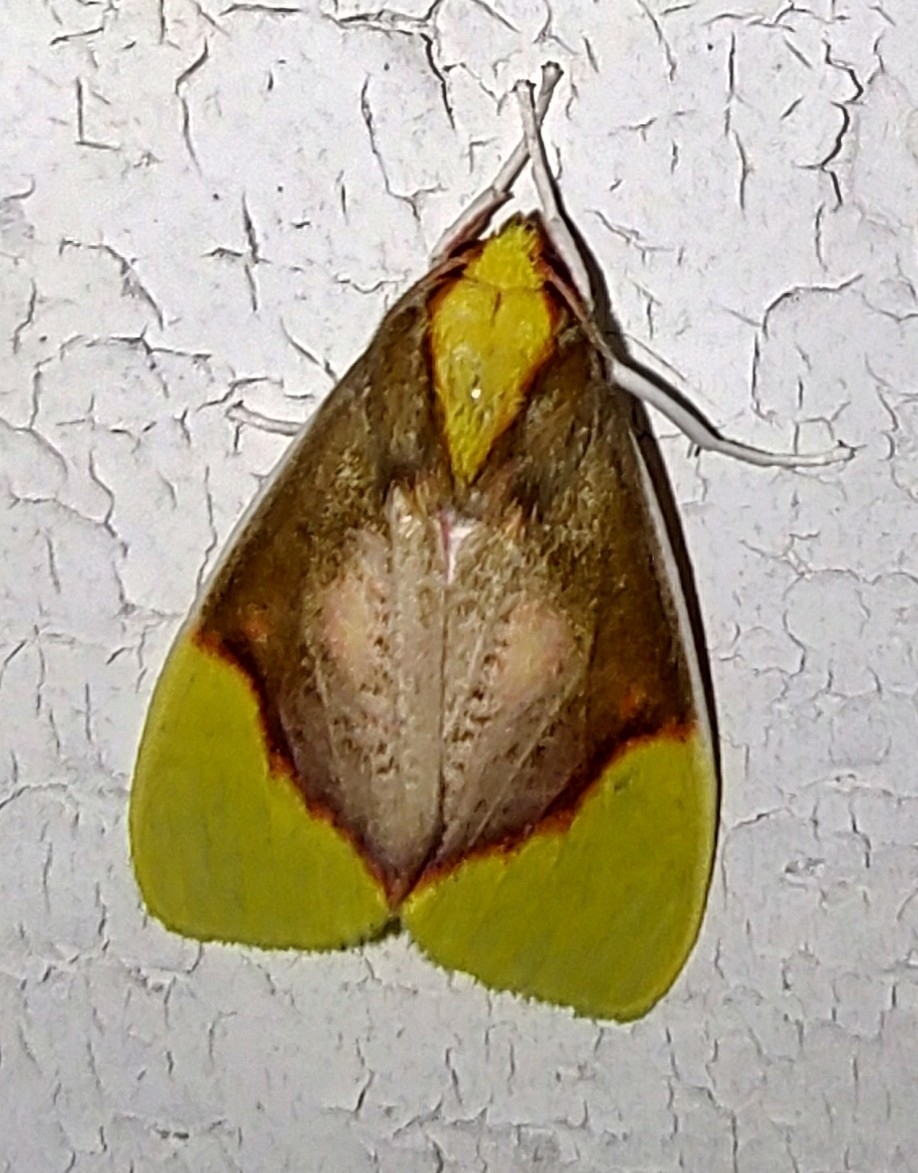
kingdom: Animalia
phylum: Arthropoda
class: Insecta
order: Lepidoptera
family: Erebidae
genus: Demolis
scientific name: Demolis albicostata
